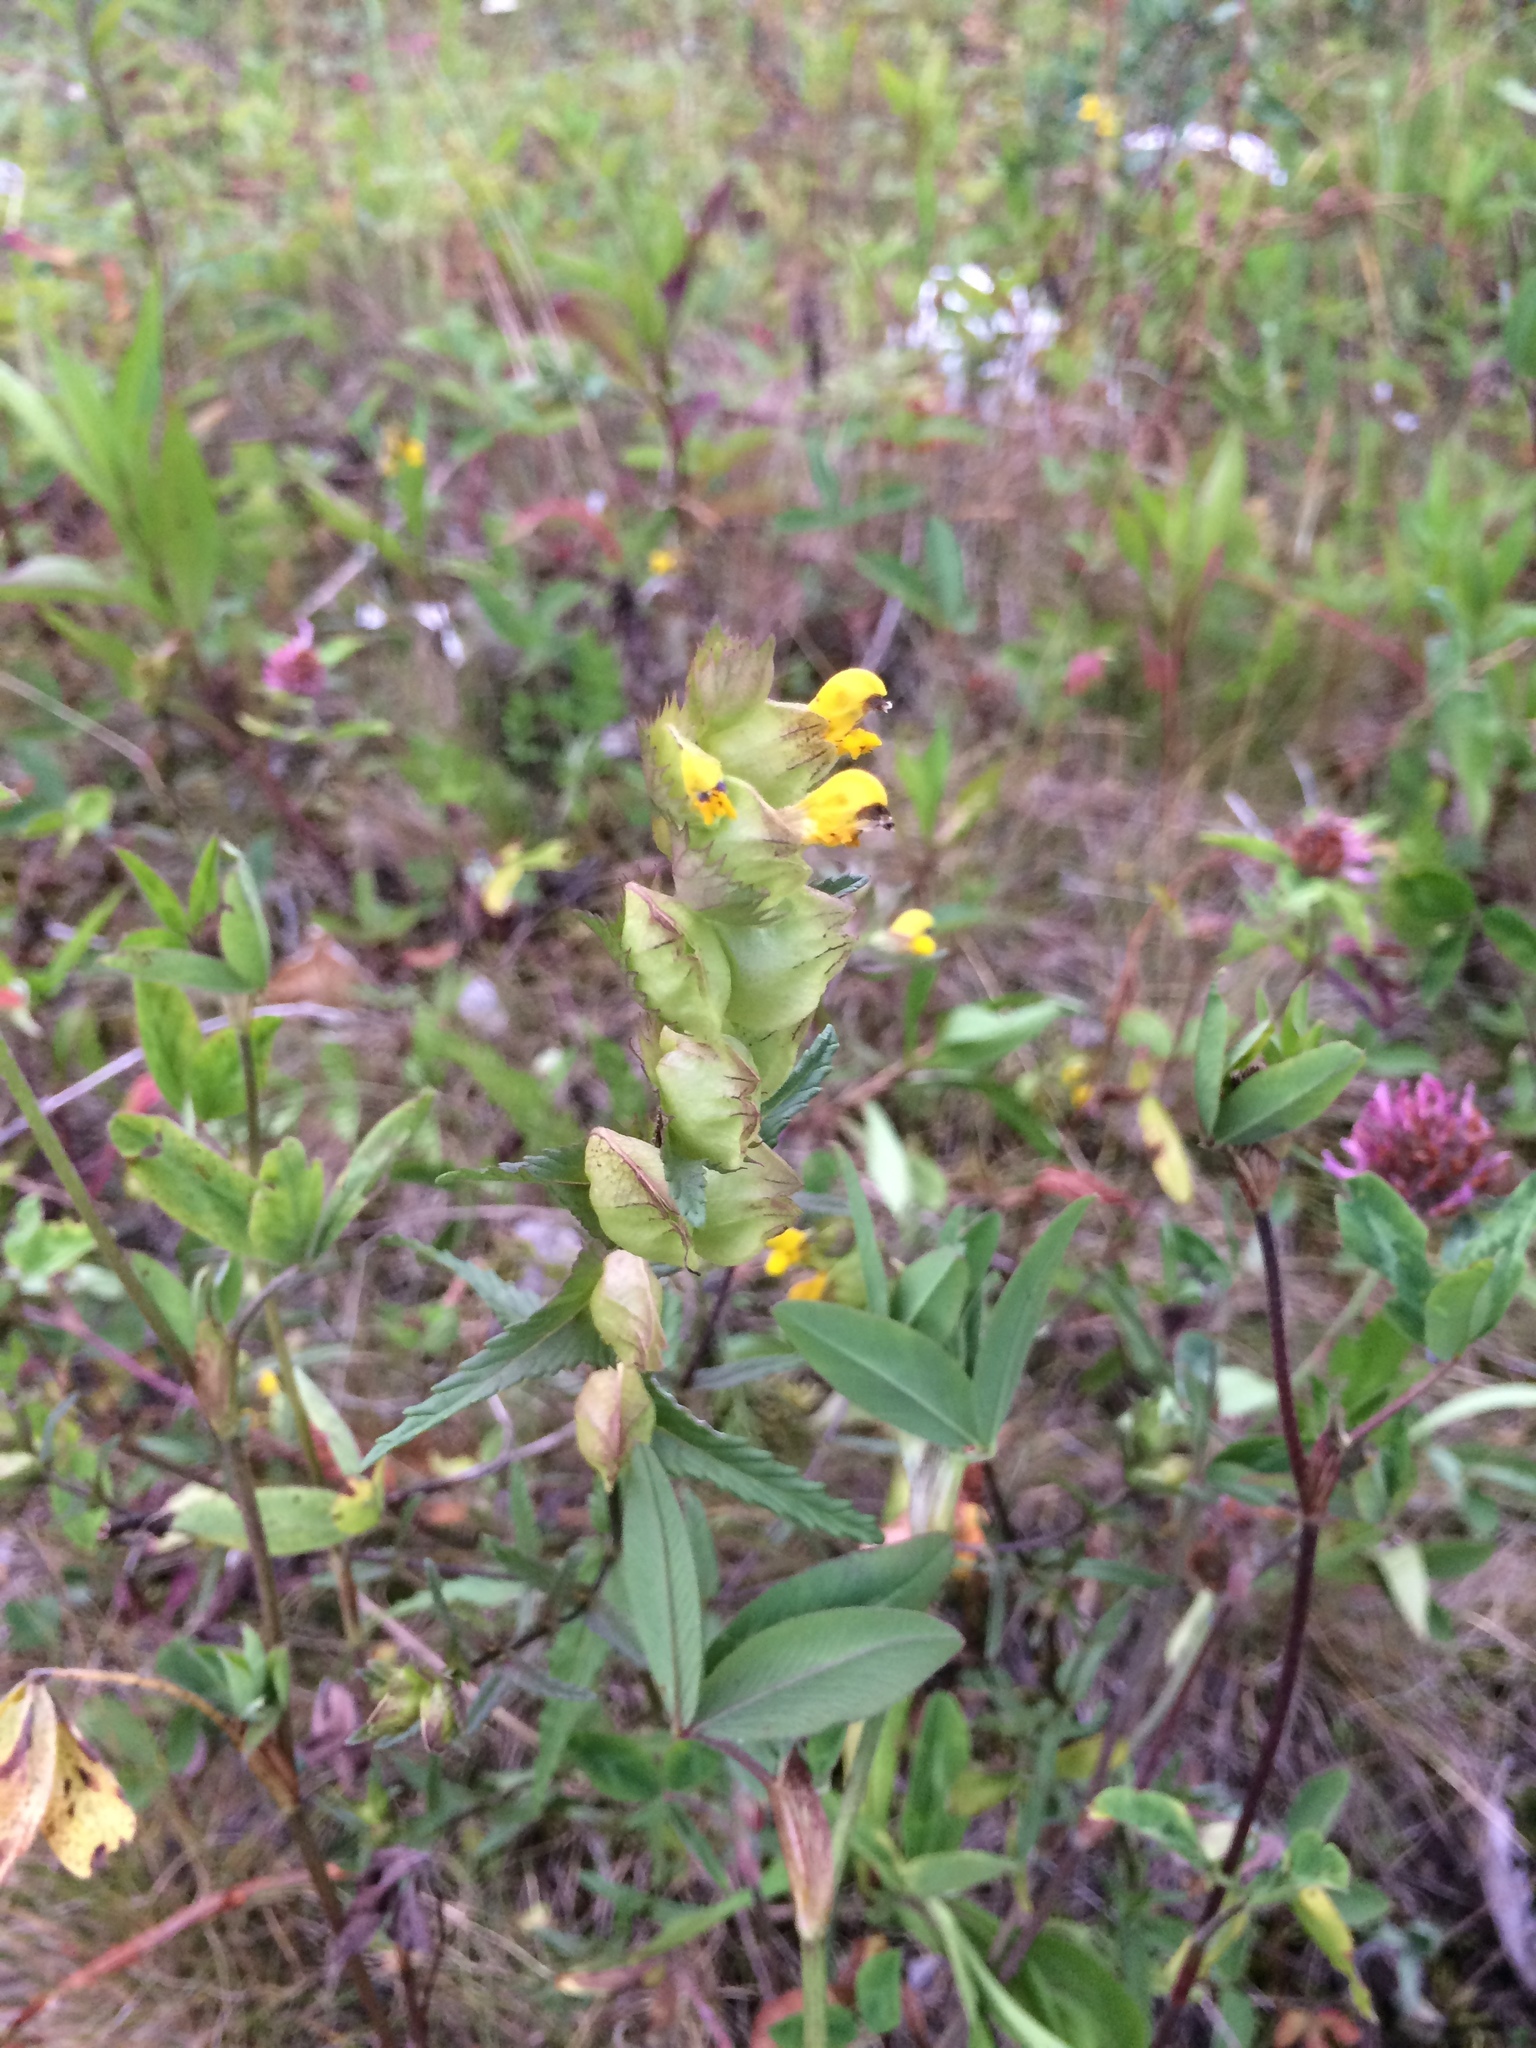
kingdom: Plantae
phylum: Tracheophyta
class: Magnoliopsida
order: Lamiales
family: Orobanchaceae
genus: Rhinanthus
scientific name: Rhinanthus minor
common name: Yellow-rattle
